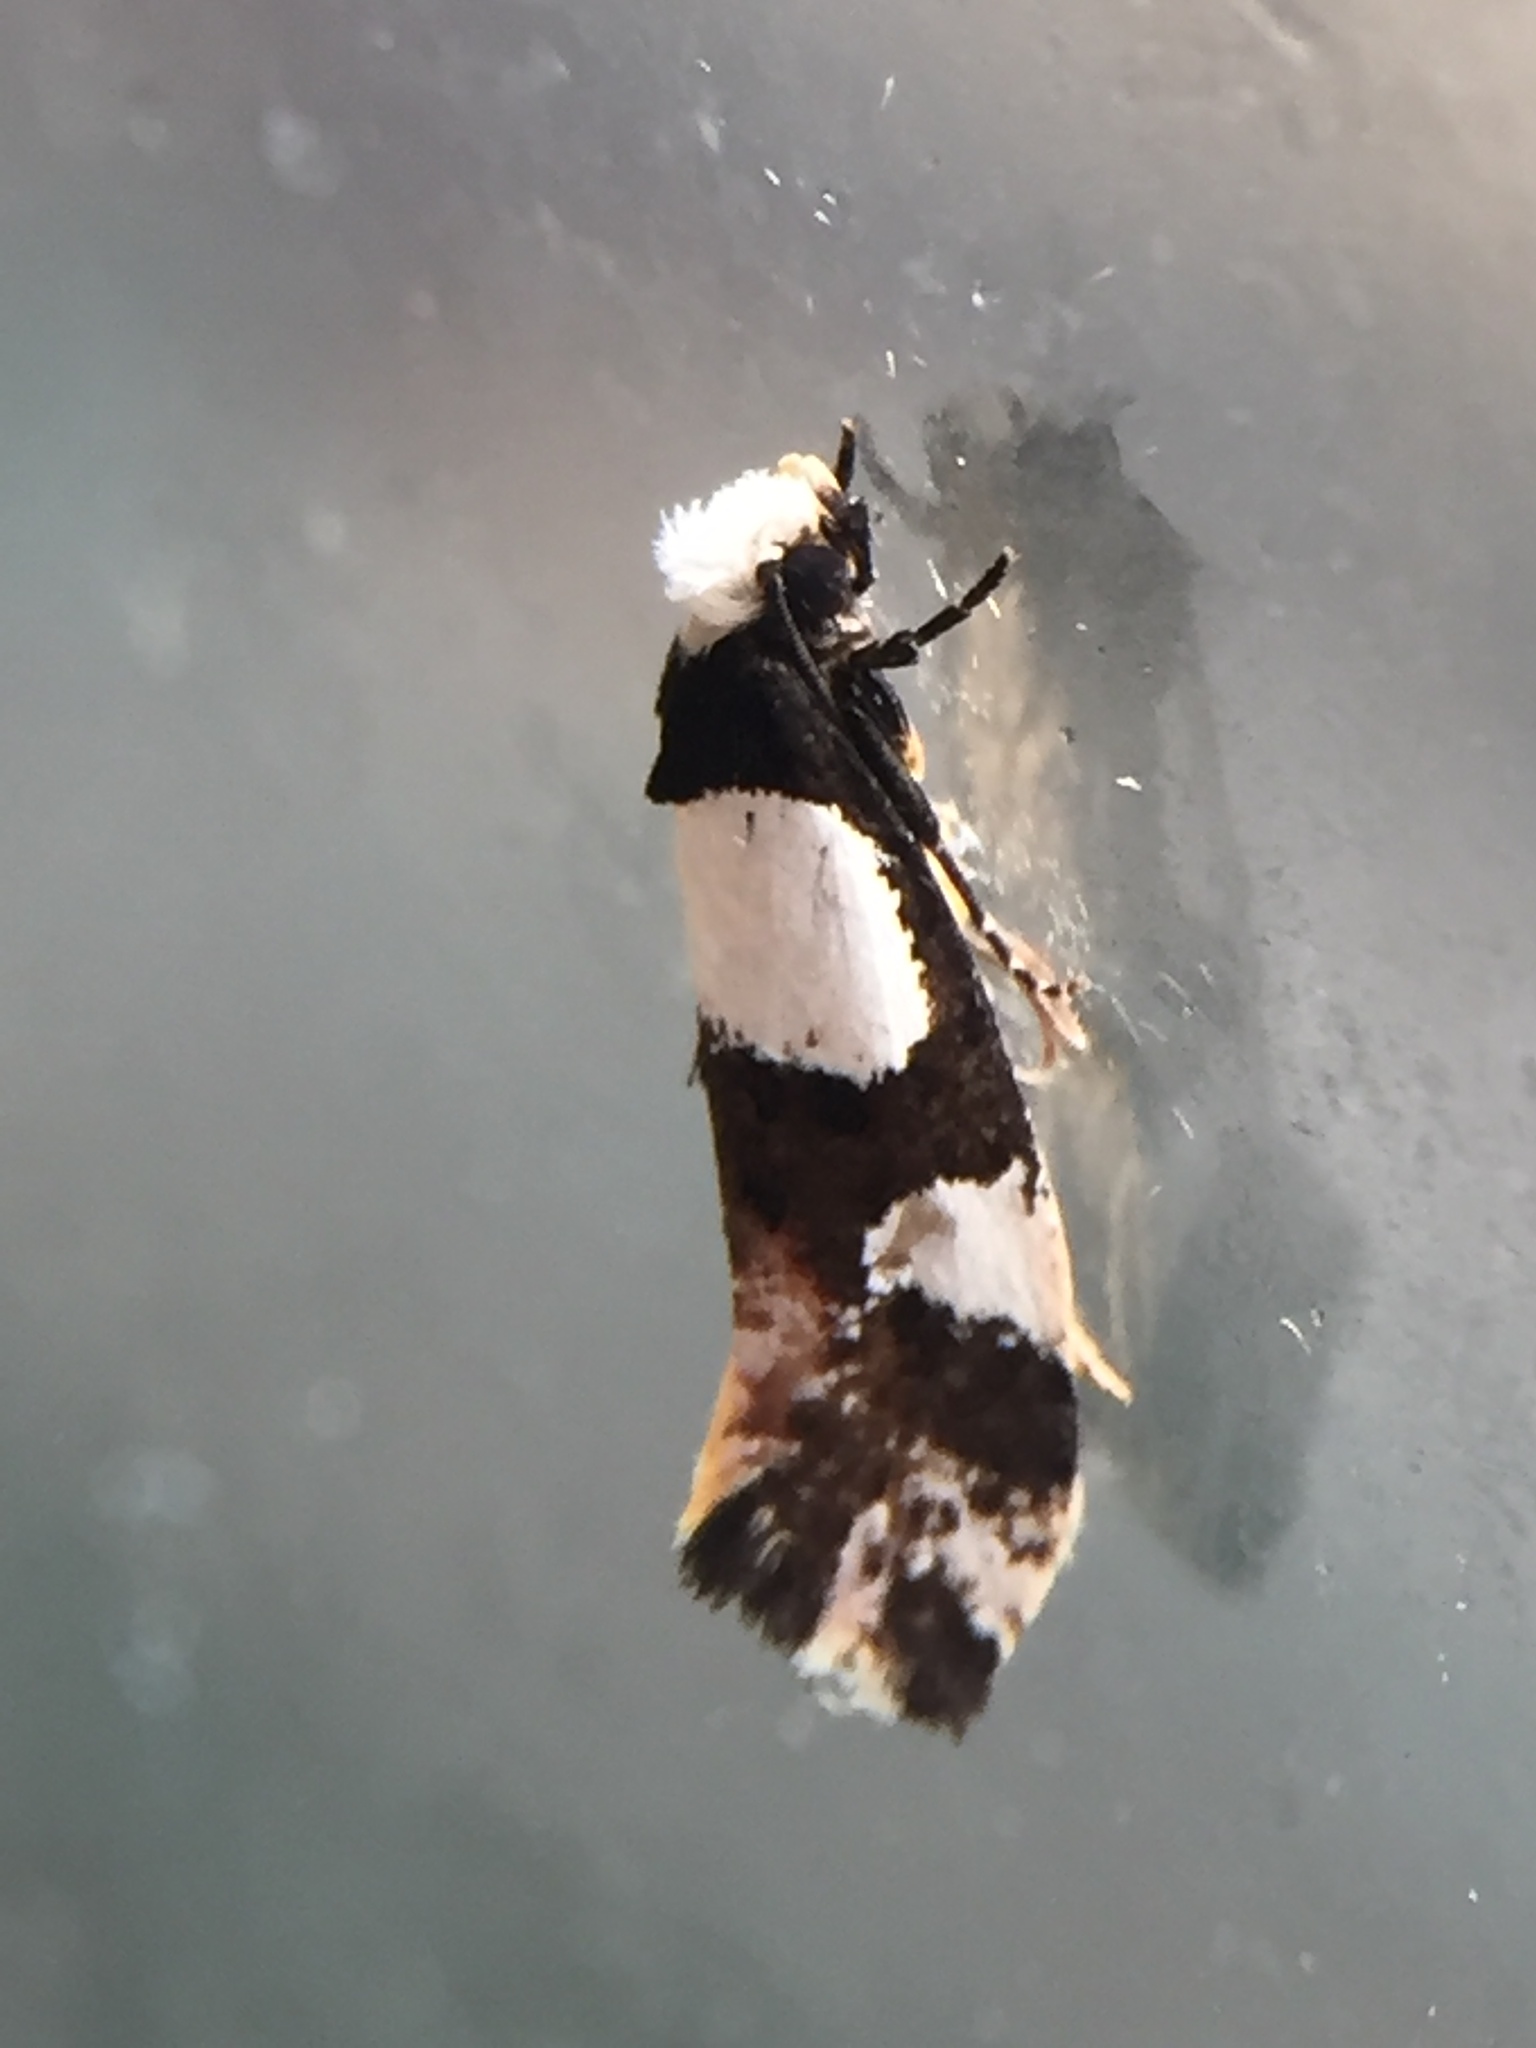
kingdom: Animalia
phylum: Arthropoda
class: Insecta
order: Lepidoptera
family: Tineidae
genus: Monopis
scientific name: Monopis icterogastra
